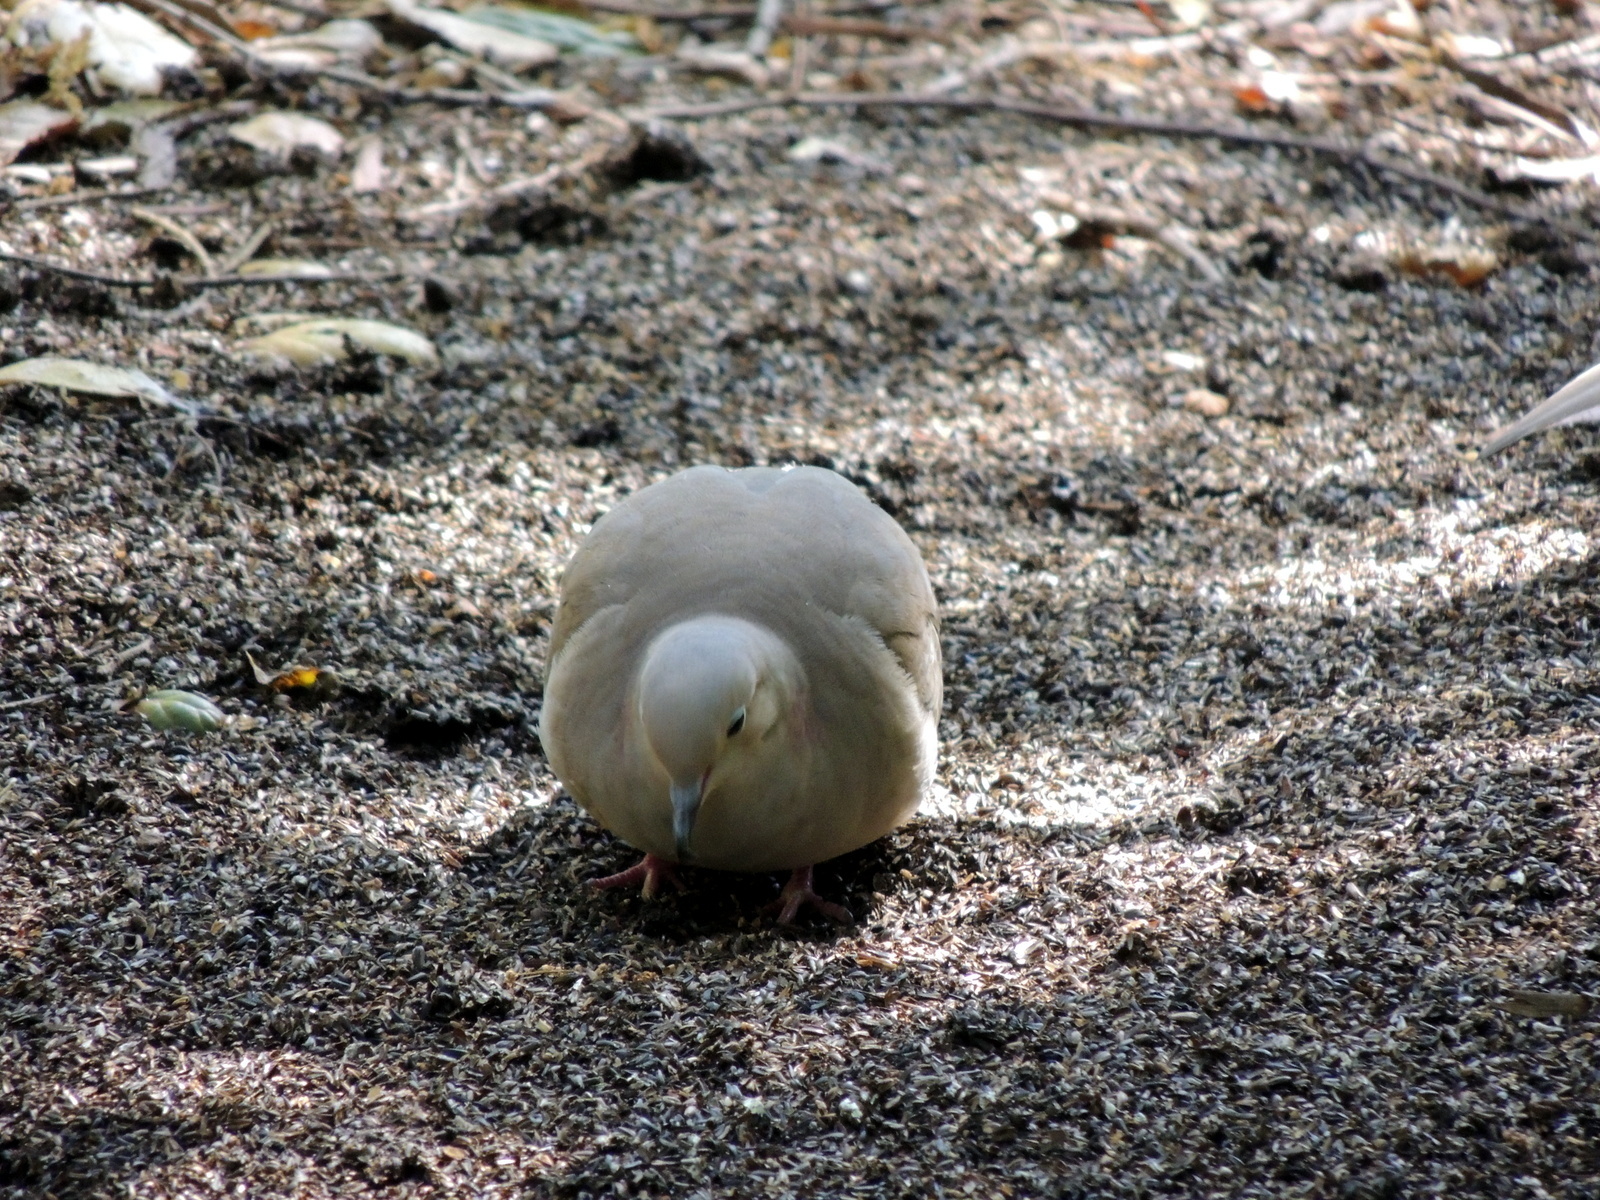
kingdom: Animalia
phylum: Chordata
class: Aves
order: Columbiformes
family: Columbidae
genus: Zenaida
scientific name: Zenaida macroura
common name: Mourning dove
